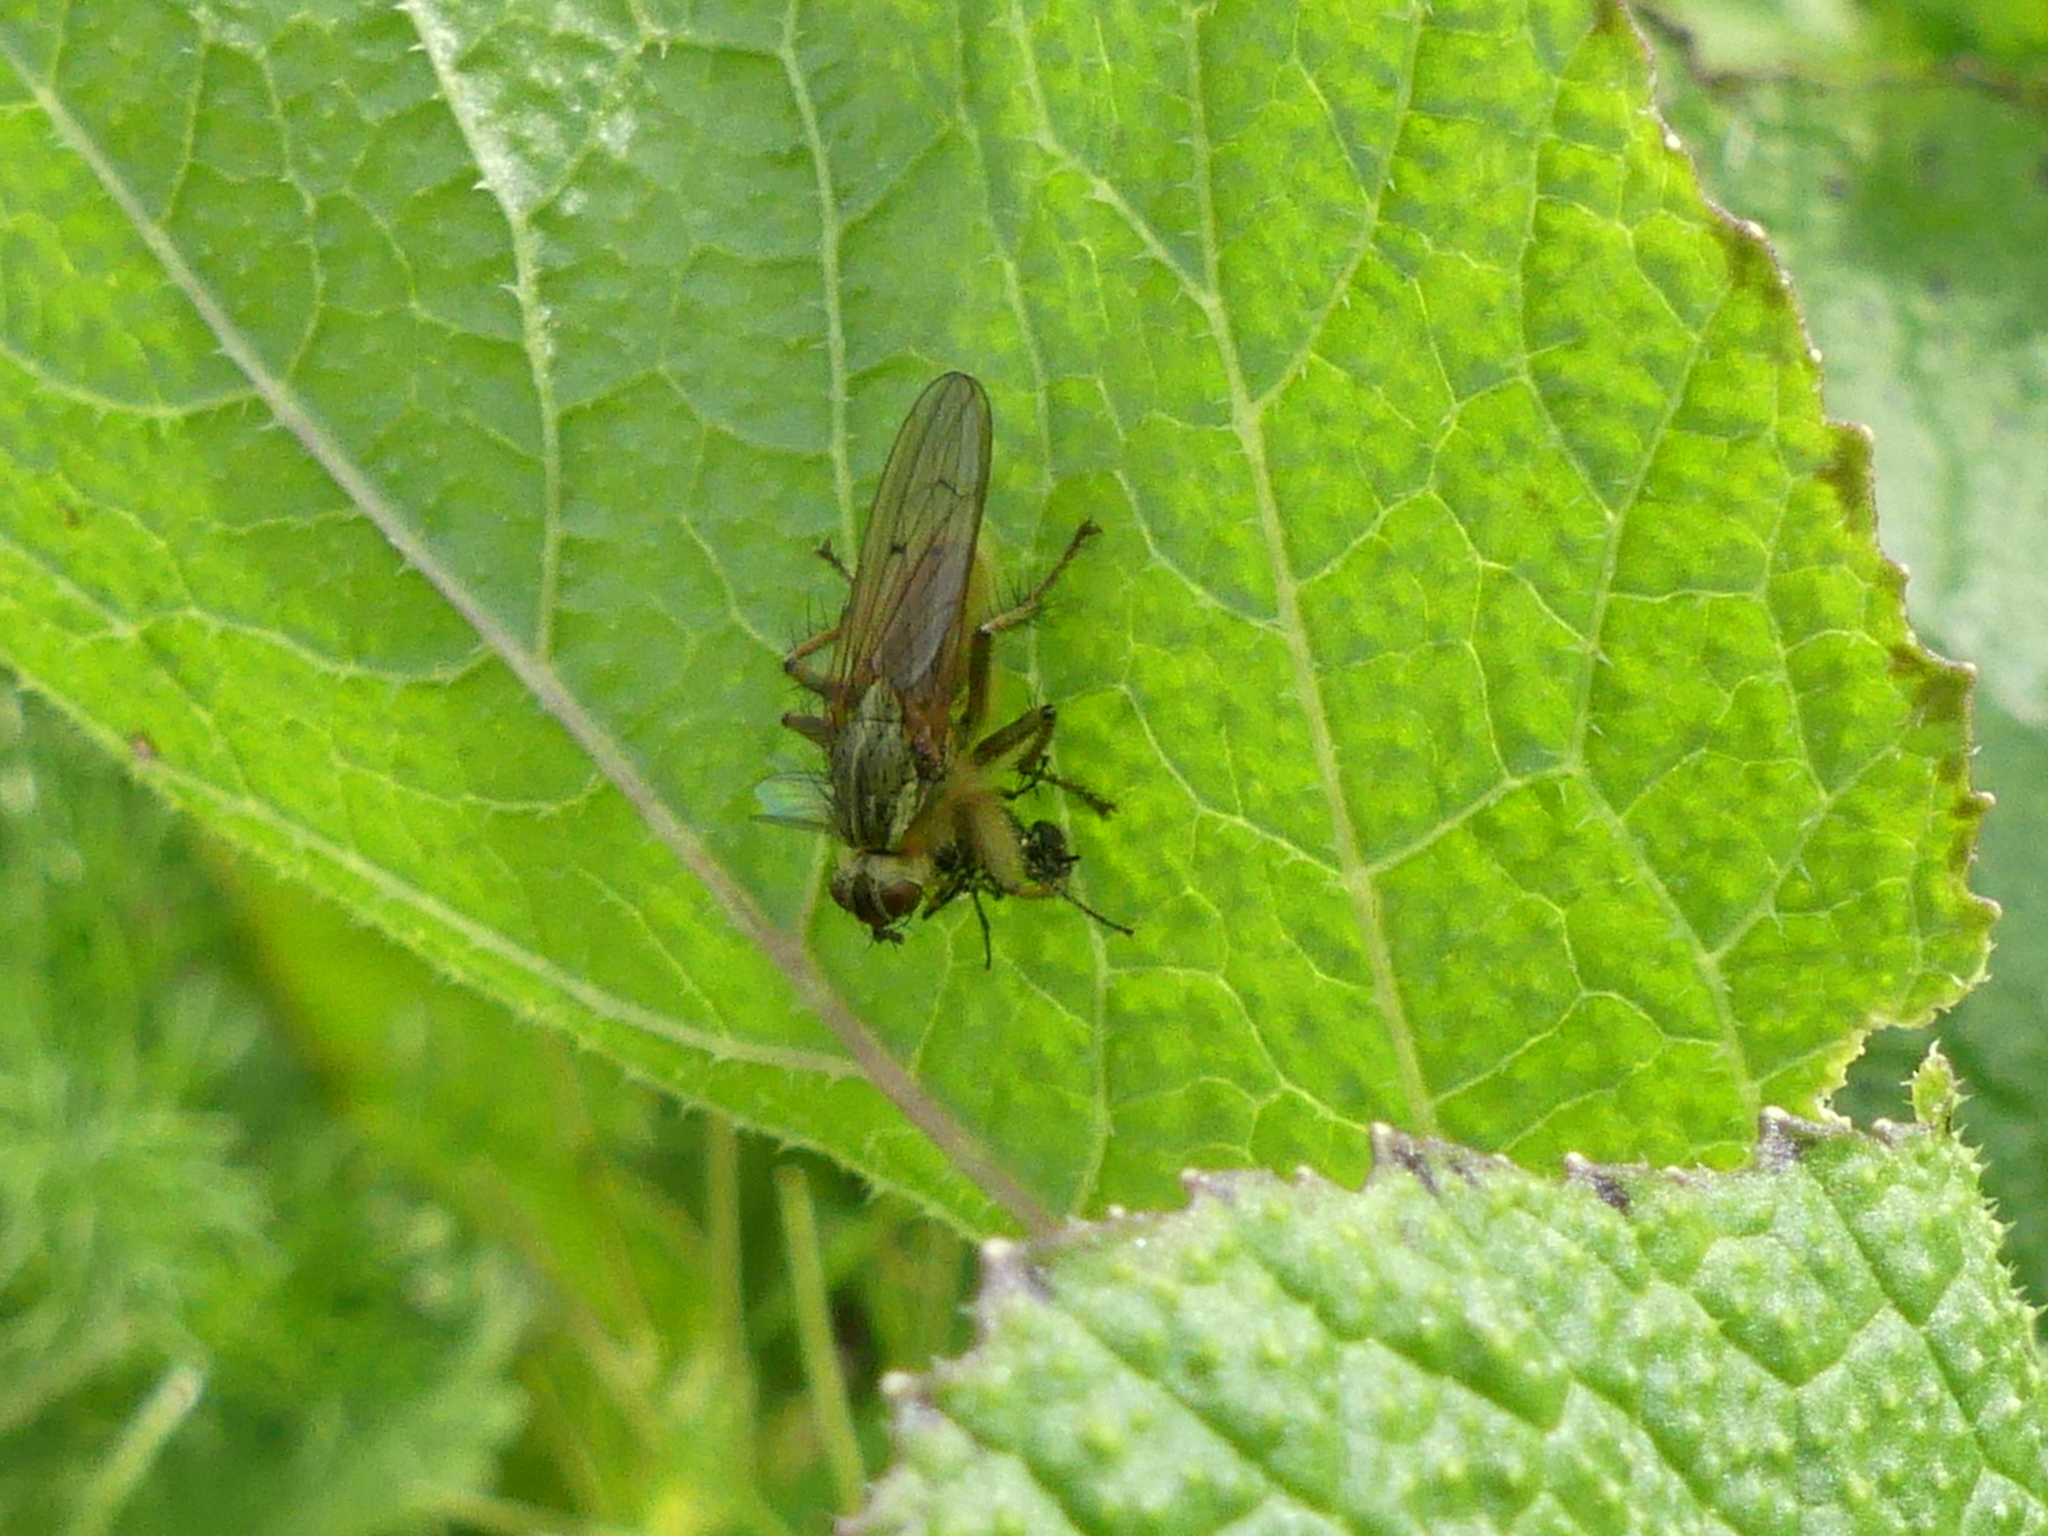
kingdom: Animalia
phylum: Arthropoda
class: Insecta
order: Diptera
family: Scathophagidae
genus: Scathophaga
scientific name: Scathophaga stercoraria
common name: Yellow dung fly
